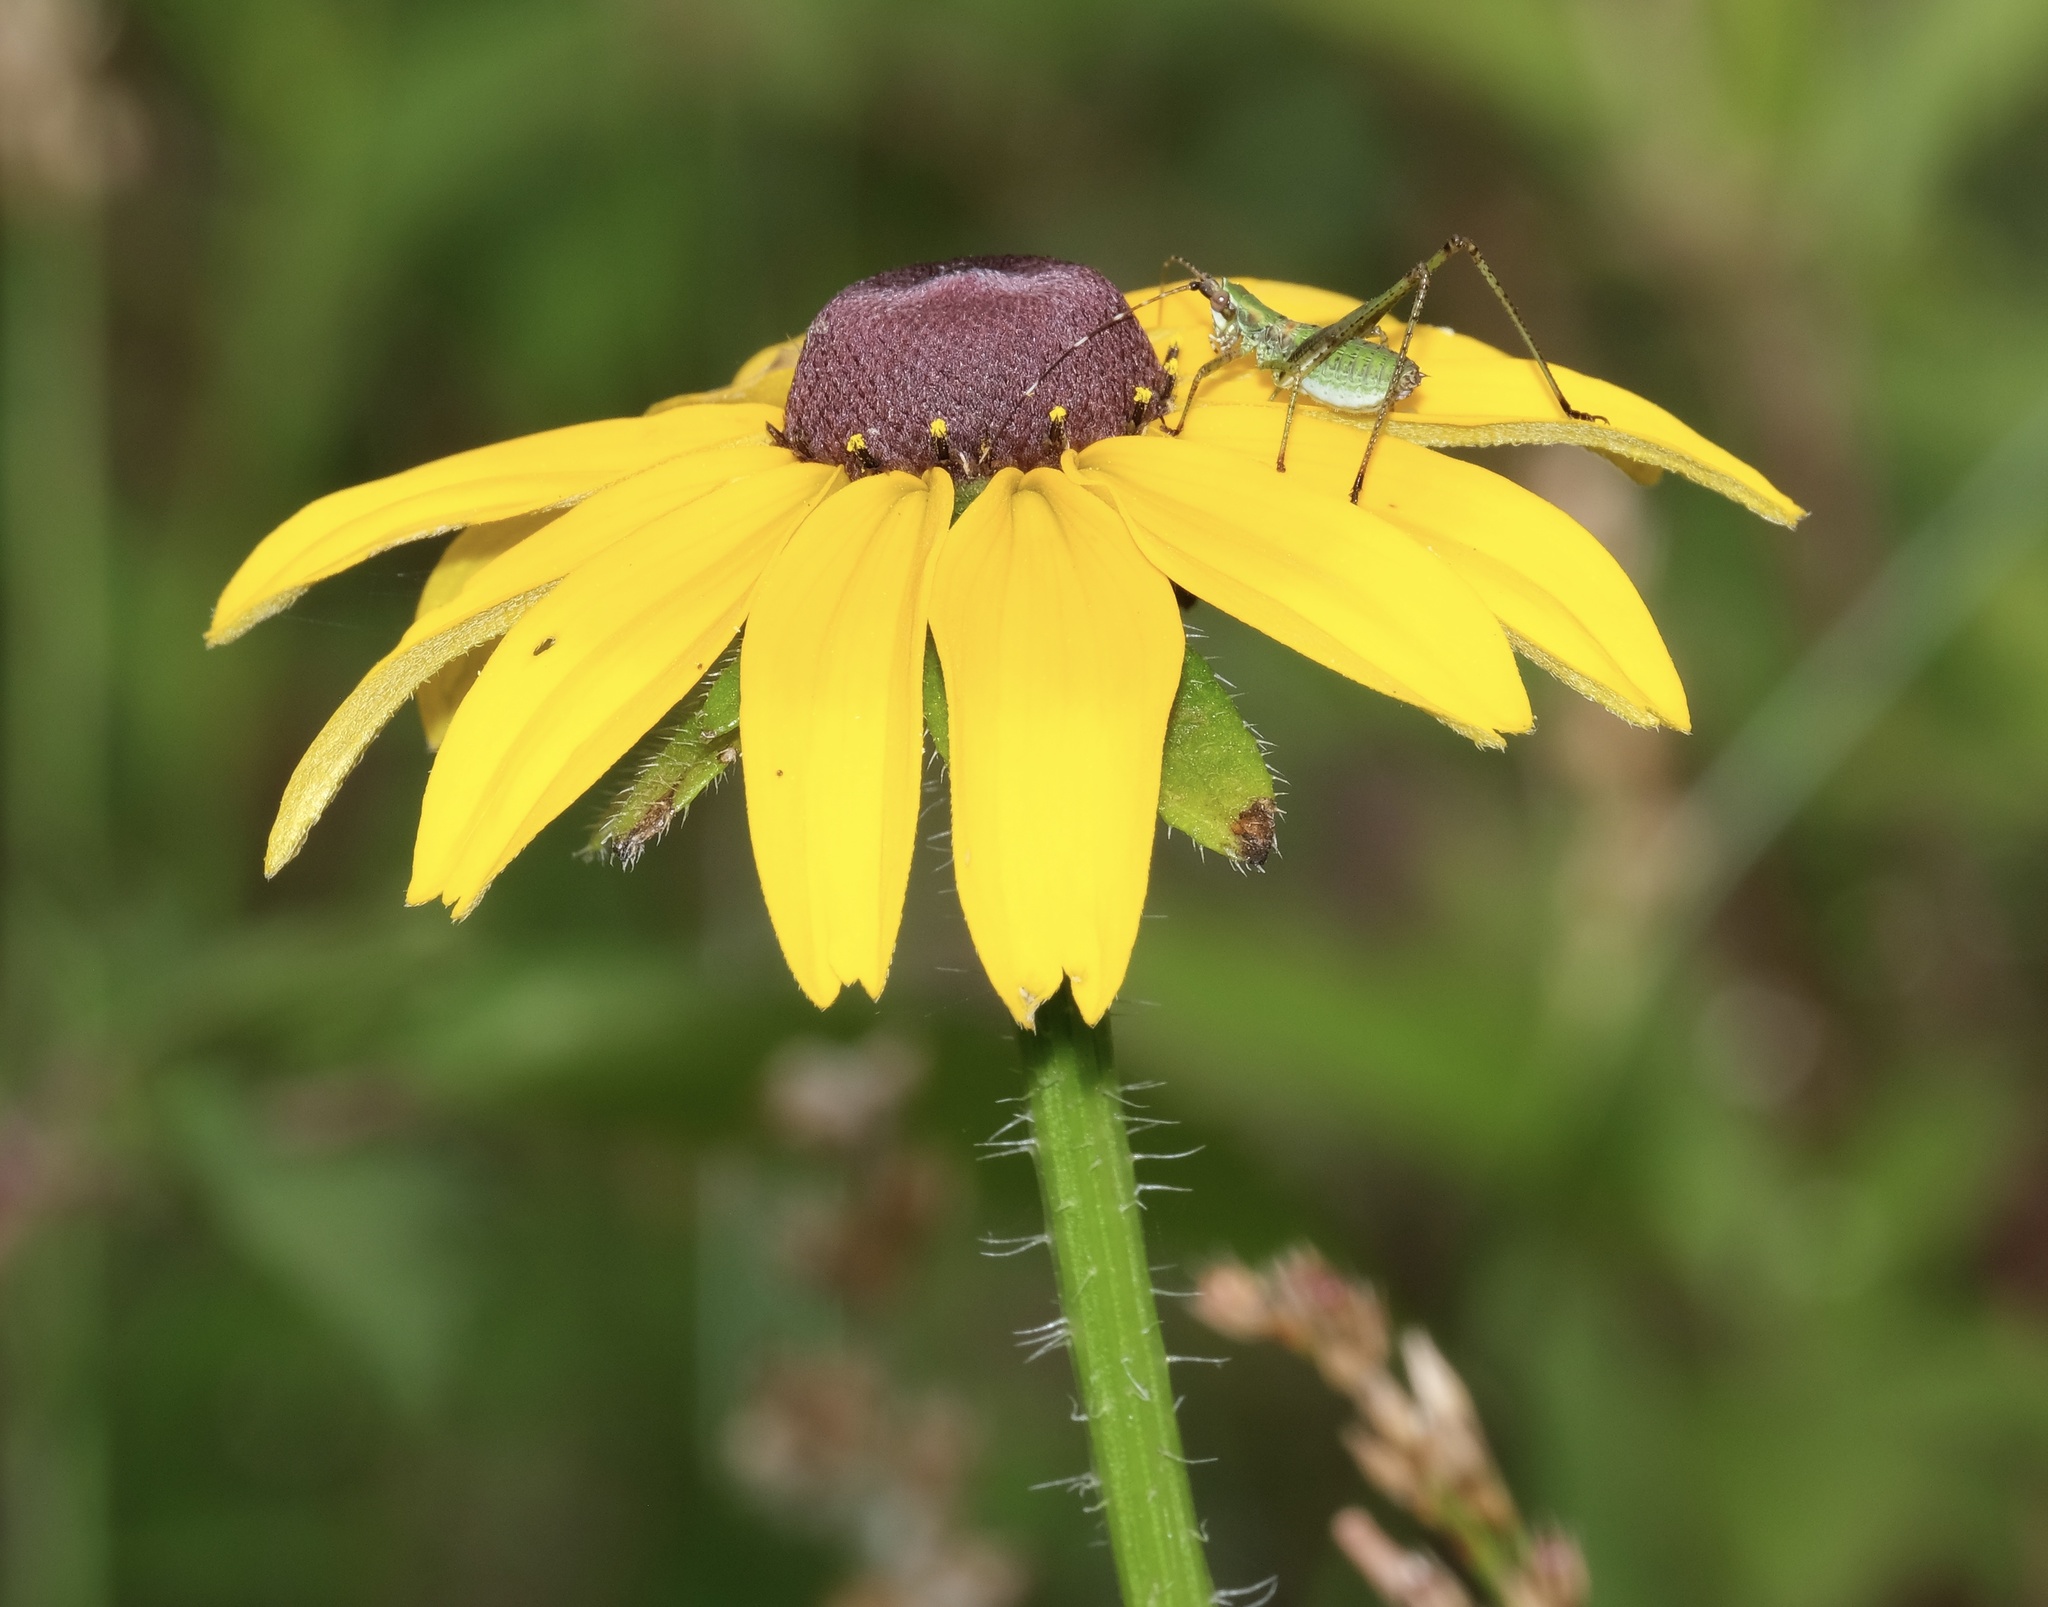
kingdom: Plantae
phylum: Tracheophyta
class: Magnoliopsida
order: Asterales
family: Asteraceae
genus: Rudbeckia
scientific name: Rudbeckia hirta
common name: Black-eyed-susan
